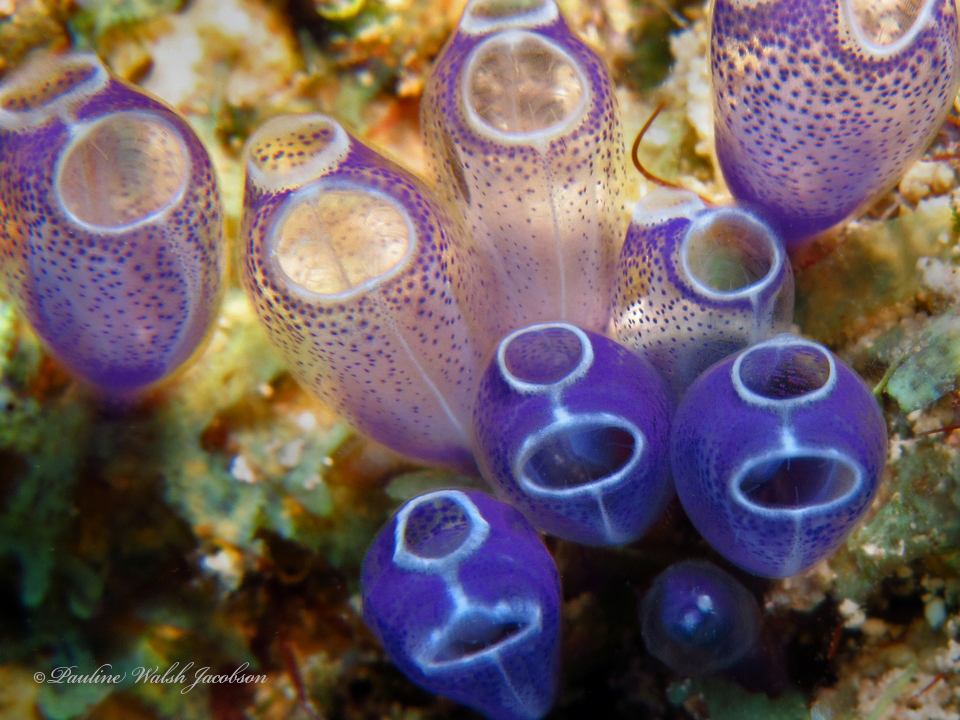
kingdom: Animalia
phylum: Chordata
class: Ascidiacea
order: Aplousobranchia
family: Clavelinidae
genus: Clavelina
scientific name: Clavelina puertosecensis
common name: Blue bell tunicate
